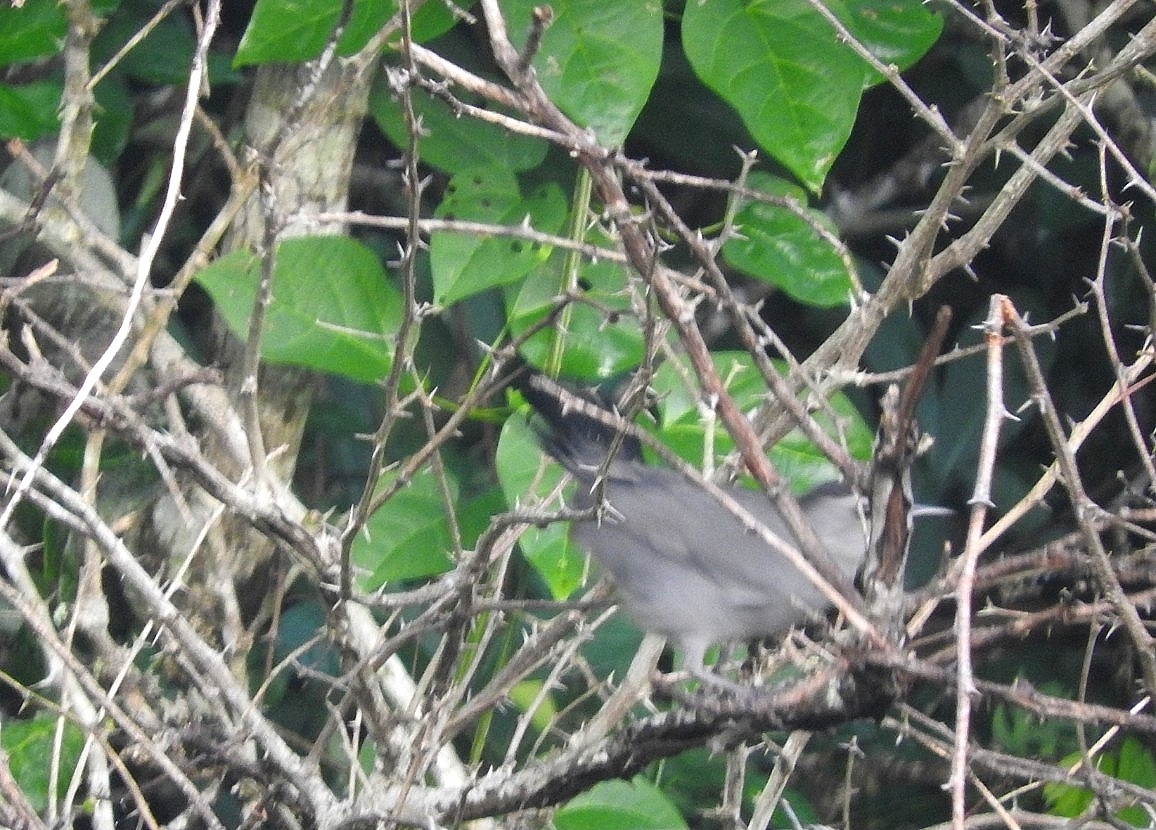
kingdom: Animalia
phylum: Chordata
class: Aves
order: Passeriformes
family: Mimidae
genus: Dumetella
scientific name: Dumetella carolinensis
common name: Gray catbird
